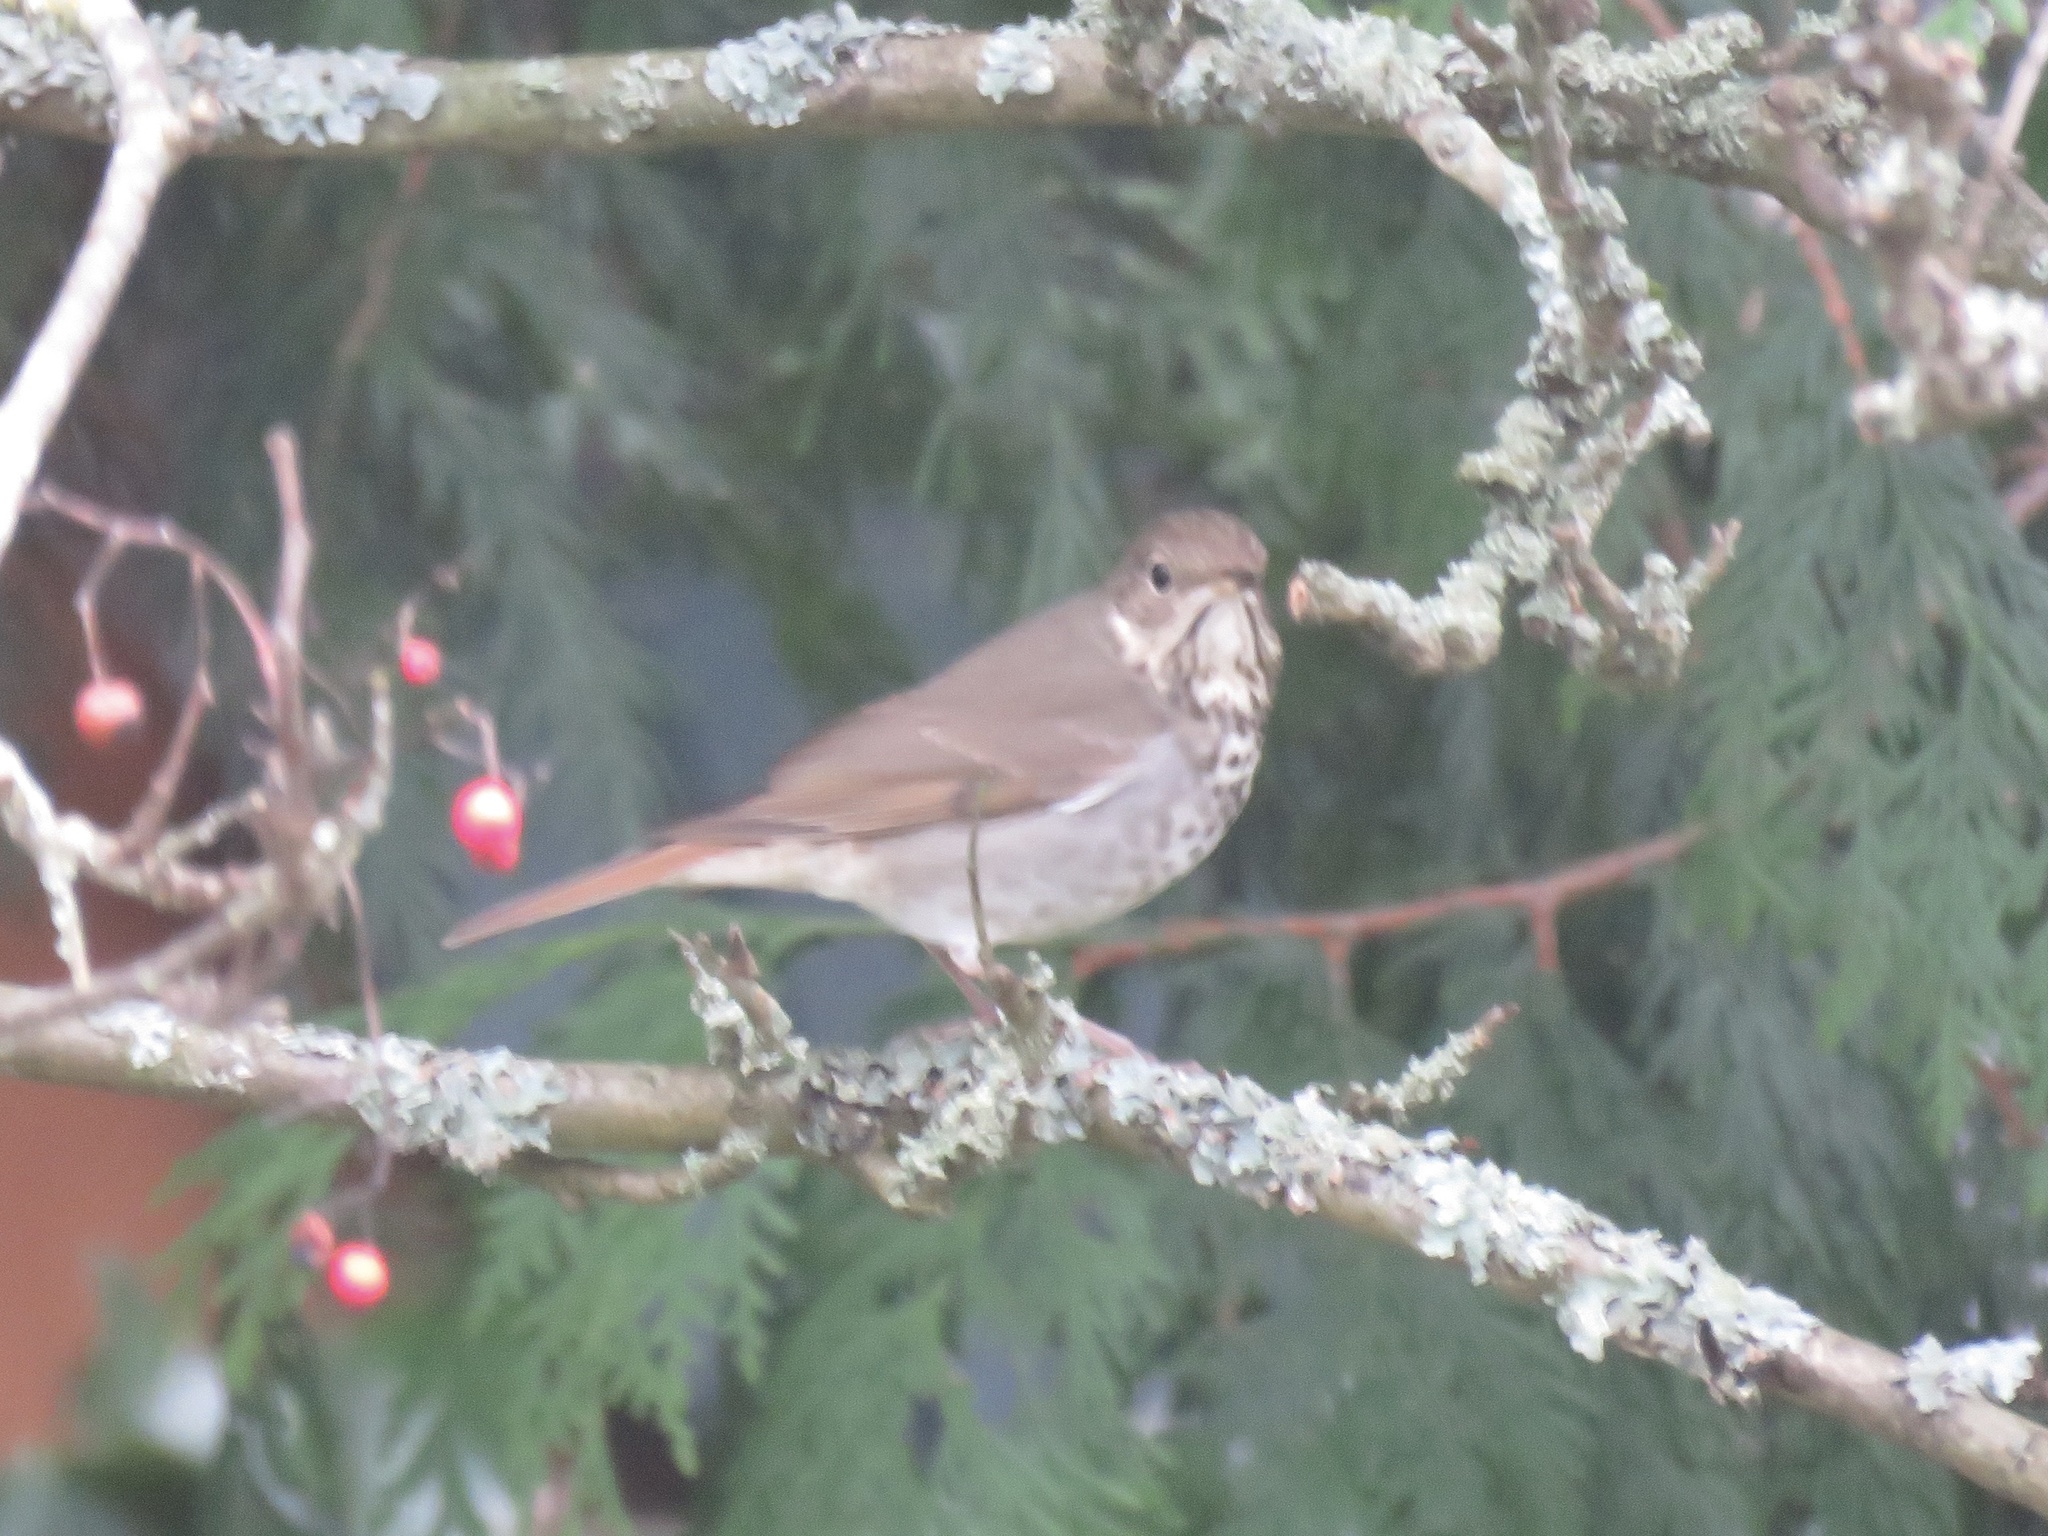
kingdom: Animalia
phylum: Chordata
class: Aves
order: Passeriformes
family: Turdidae
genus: Catharus
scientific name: Catharus guttatus
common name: Hermit thrush
